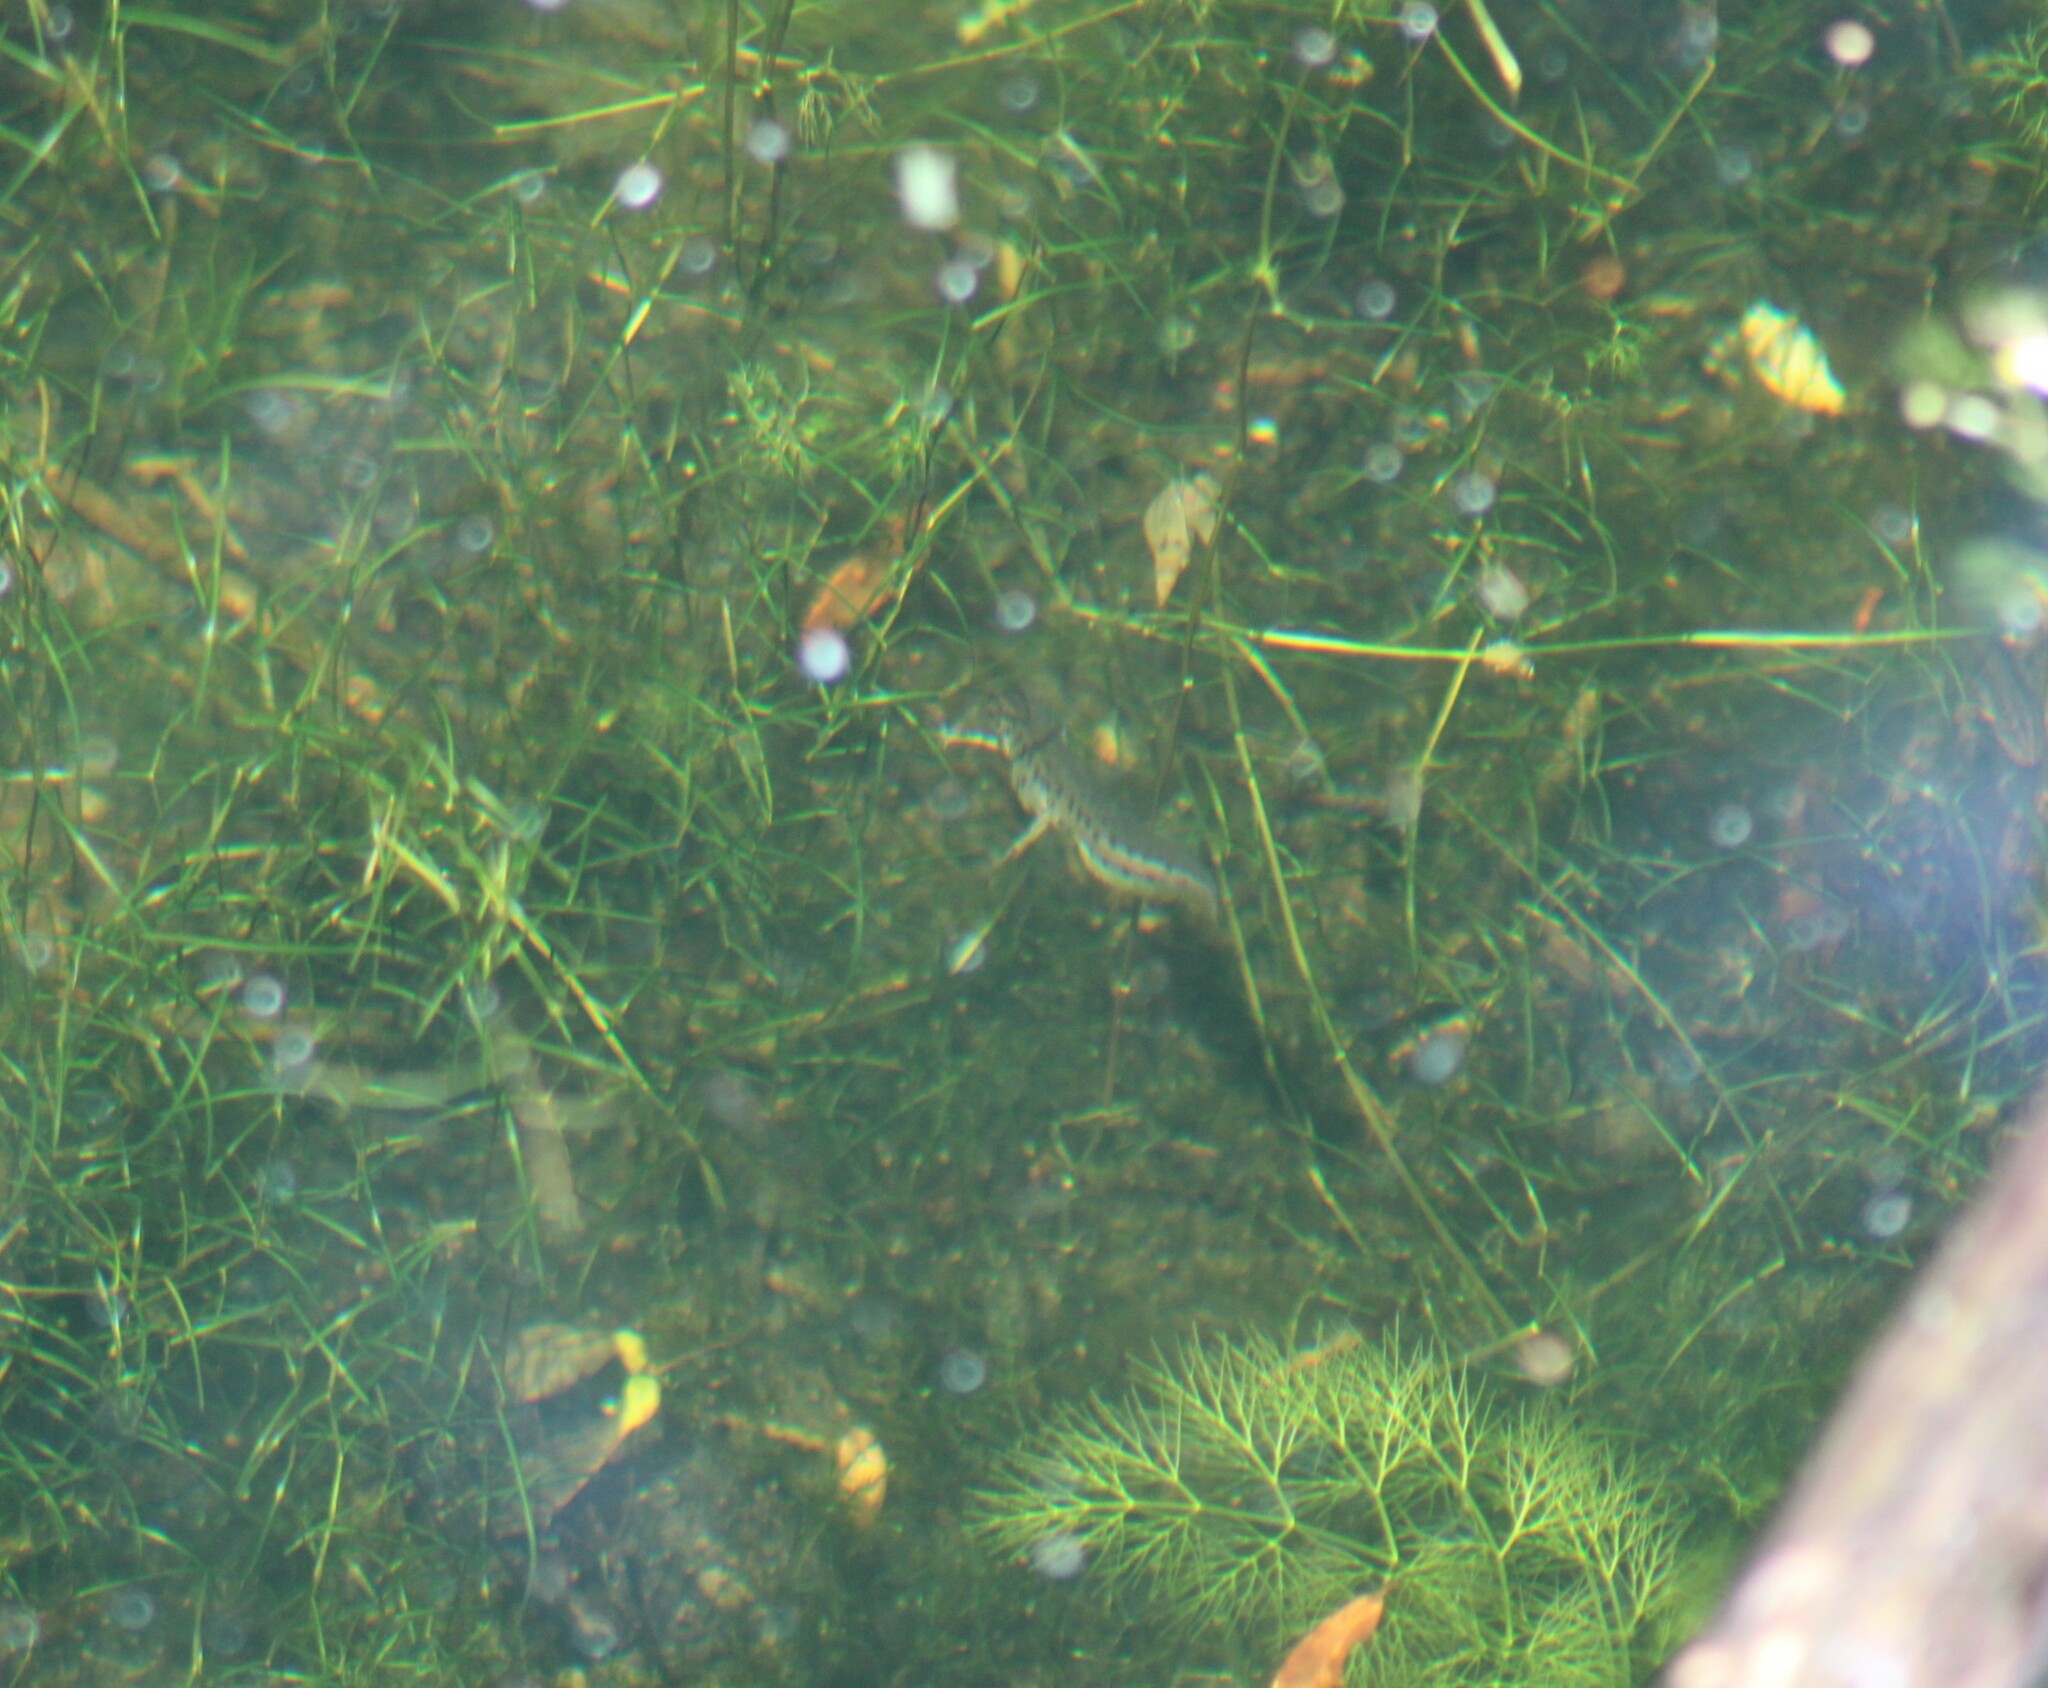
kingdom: Animalia
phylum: Chordata
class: Amphibia
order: Caudata
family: Salamandridae
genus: Lissotriton
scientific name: Lissotriton vulgaris
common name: Smooth newt
